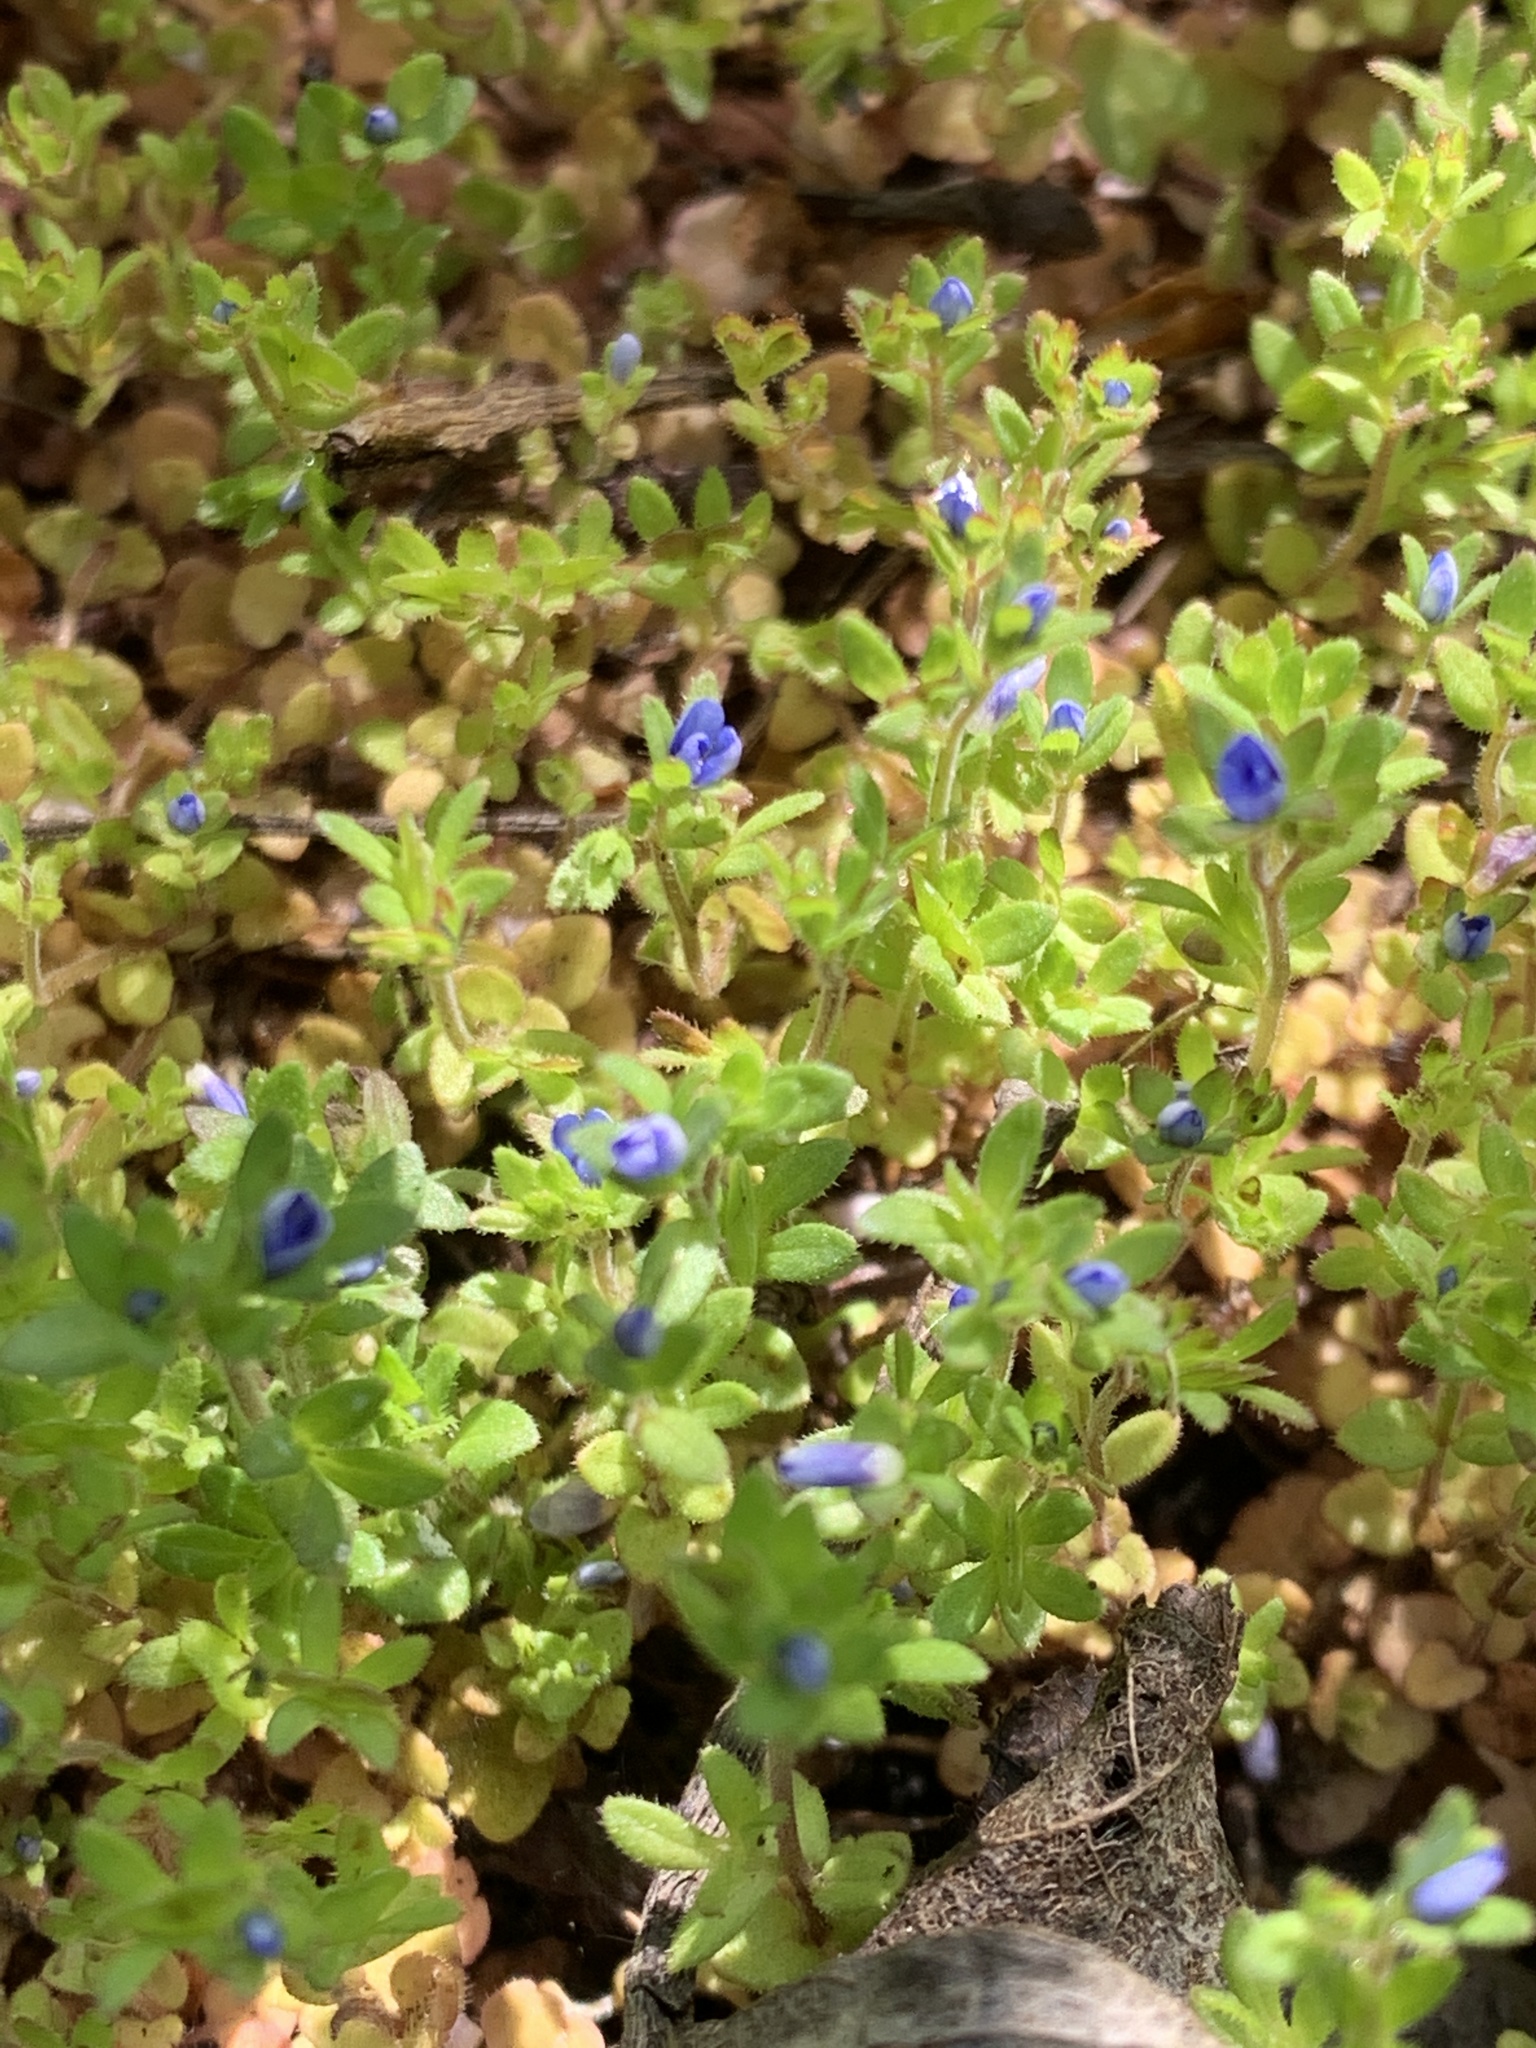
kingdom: Plantae
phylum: Tracheophyta
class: Magnoliopsida
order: Lamiales
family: Plantaginaceae
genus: Veronica
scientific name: Veronica arvensis
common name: Corn speedwell
